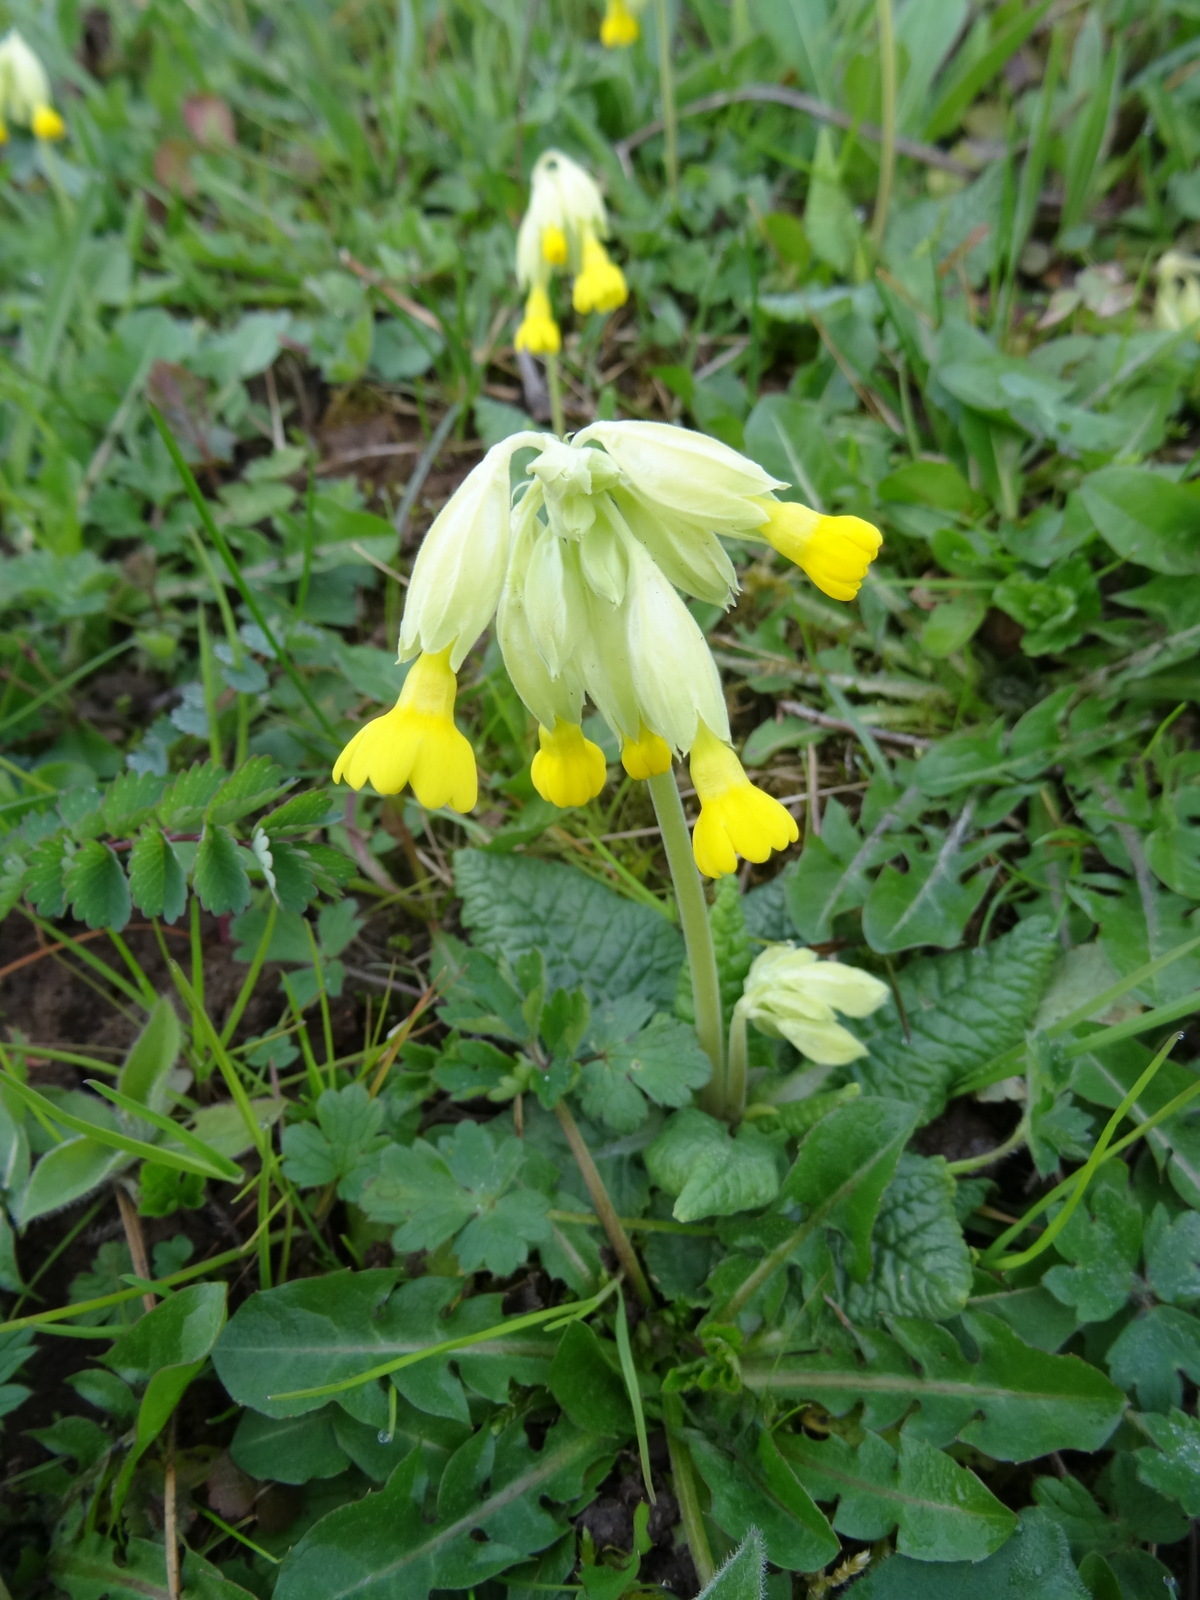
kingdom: Plantae
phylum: Tracheophyta
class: Magnoliopsida
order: Ericales
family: Primulaceae
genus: Primula
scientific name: Primula veris
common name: Cowslip
